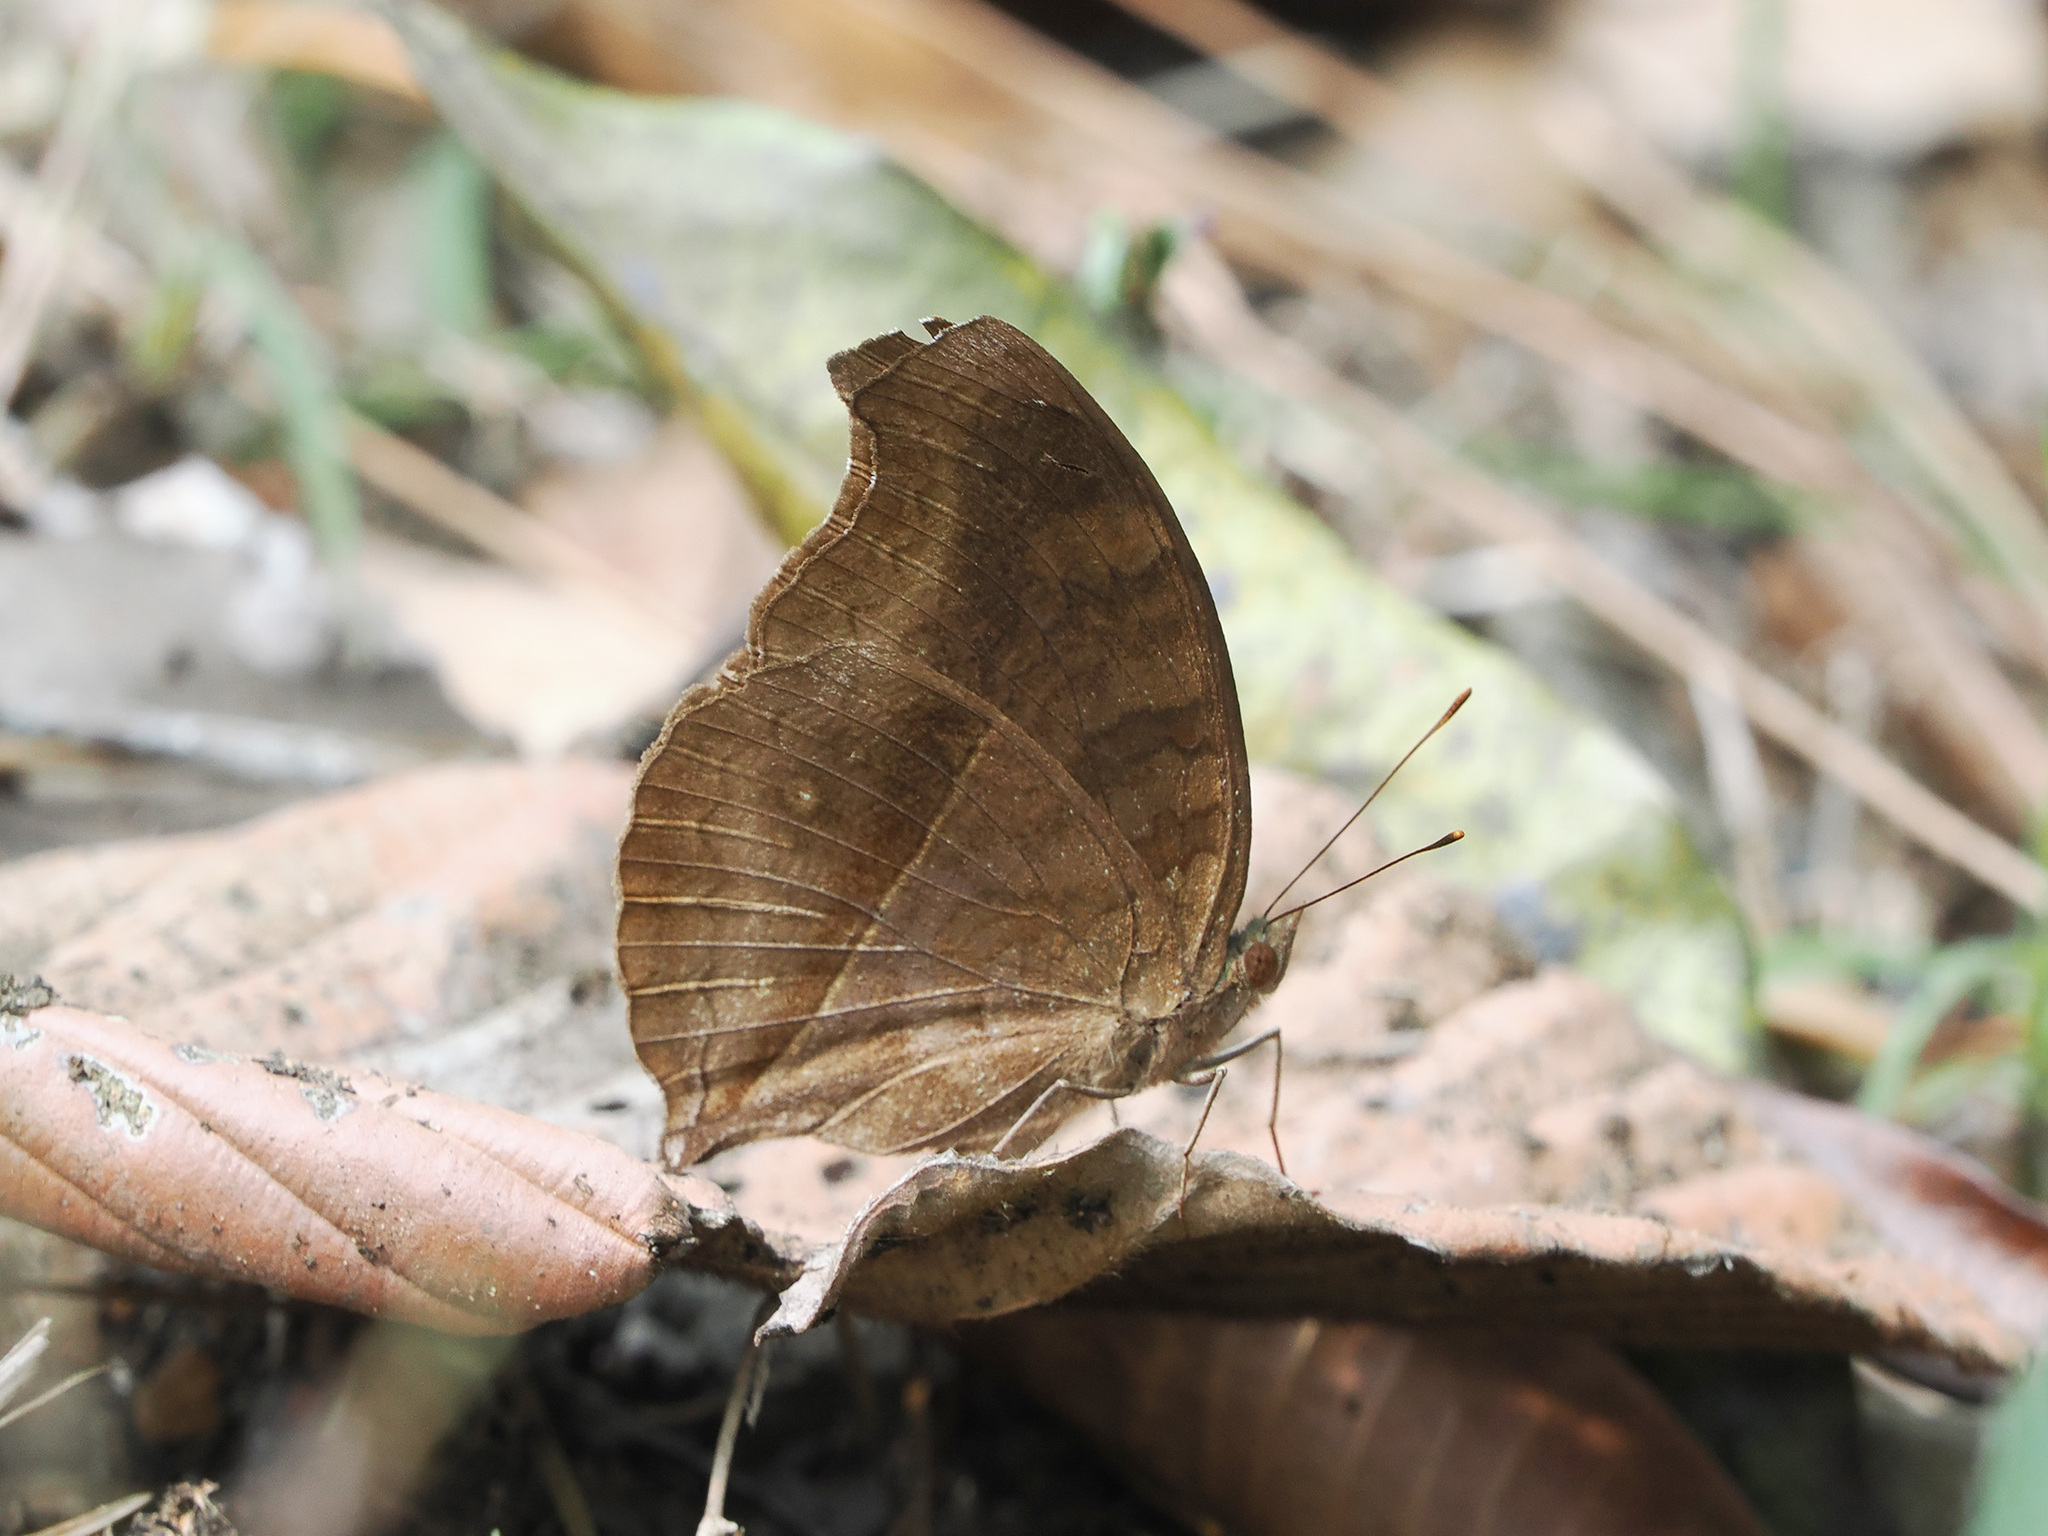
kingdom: Animalia
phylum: Arthropoda
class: Insecta
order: Lepidoptera
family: Nymphalidae
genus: Junonia
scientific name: Junonia iphita
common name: Chocolate pansy
